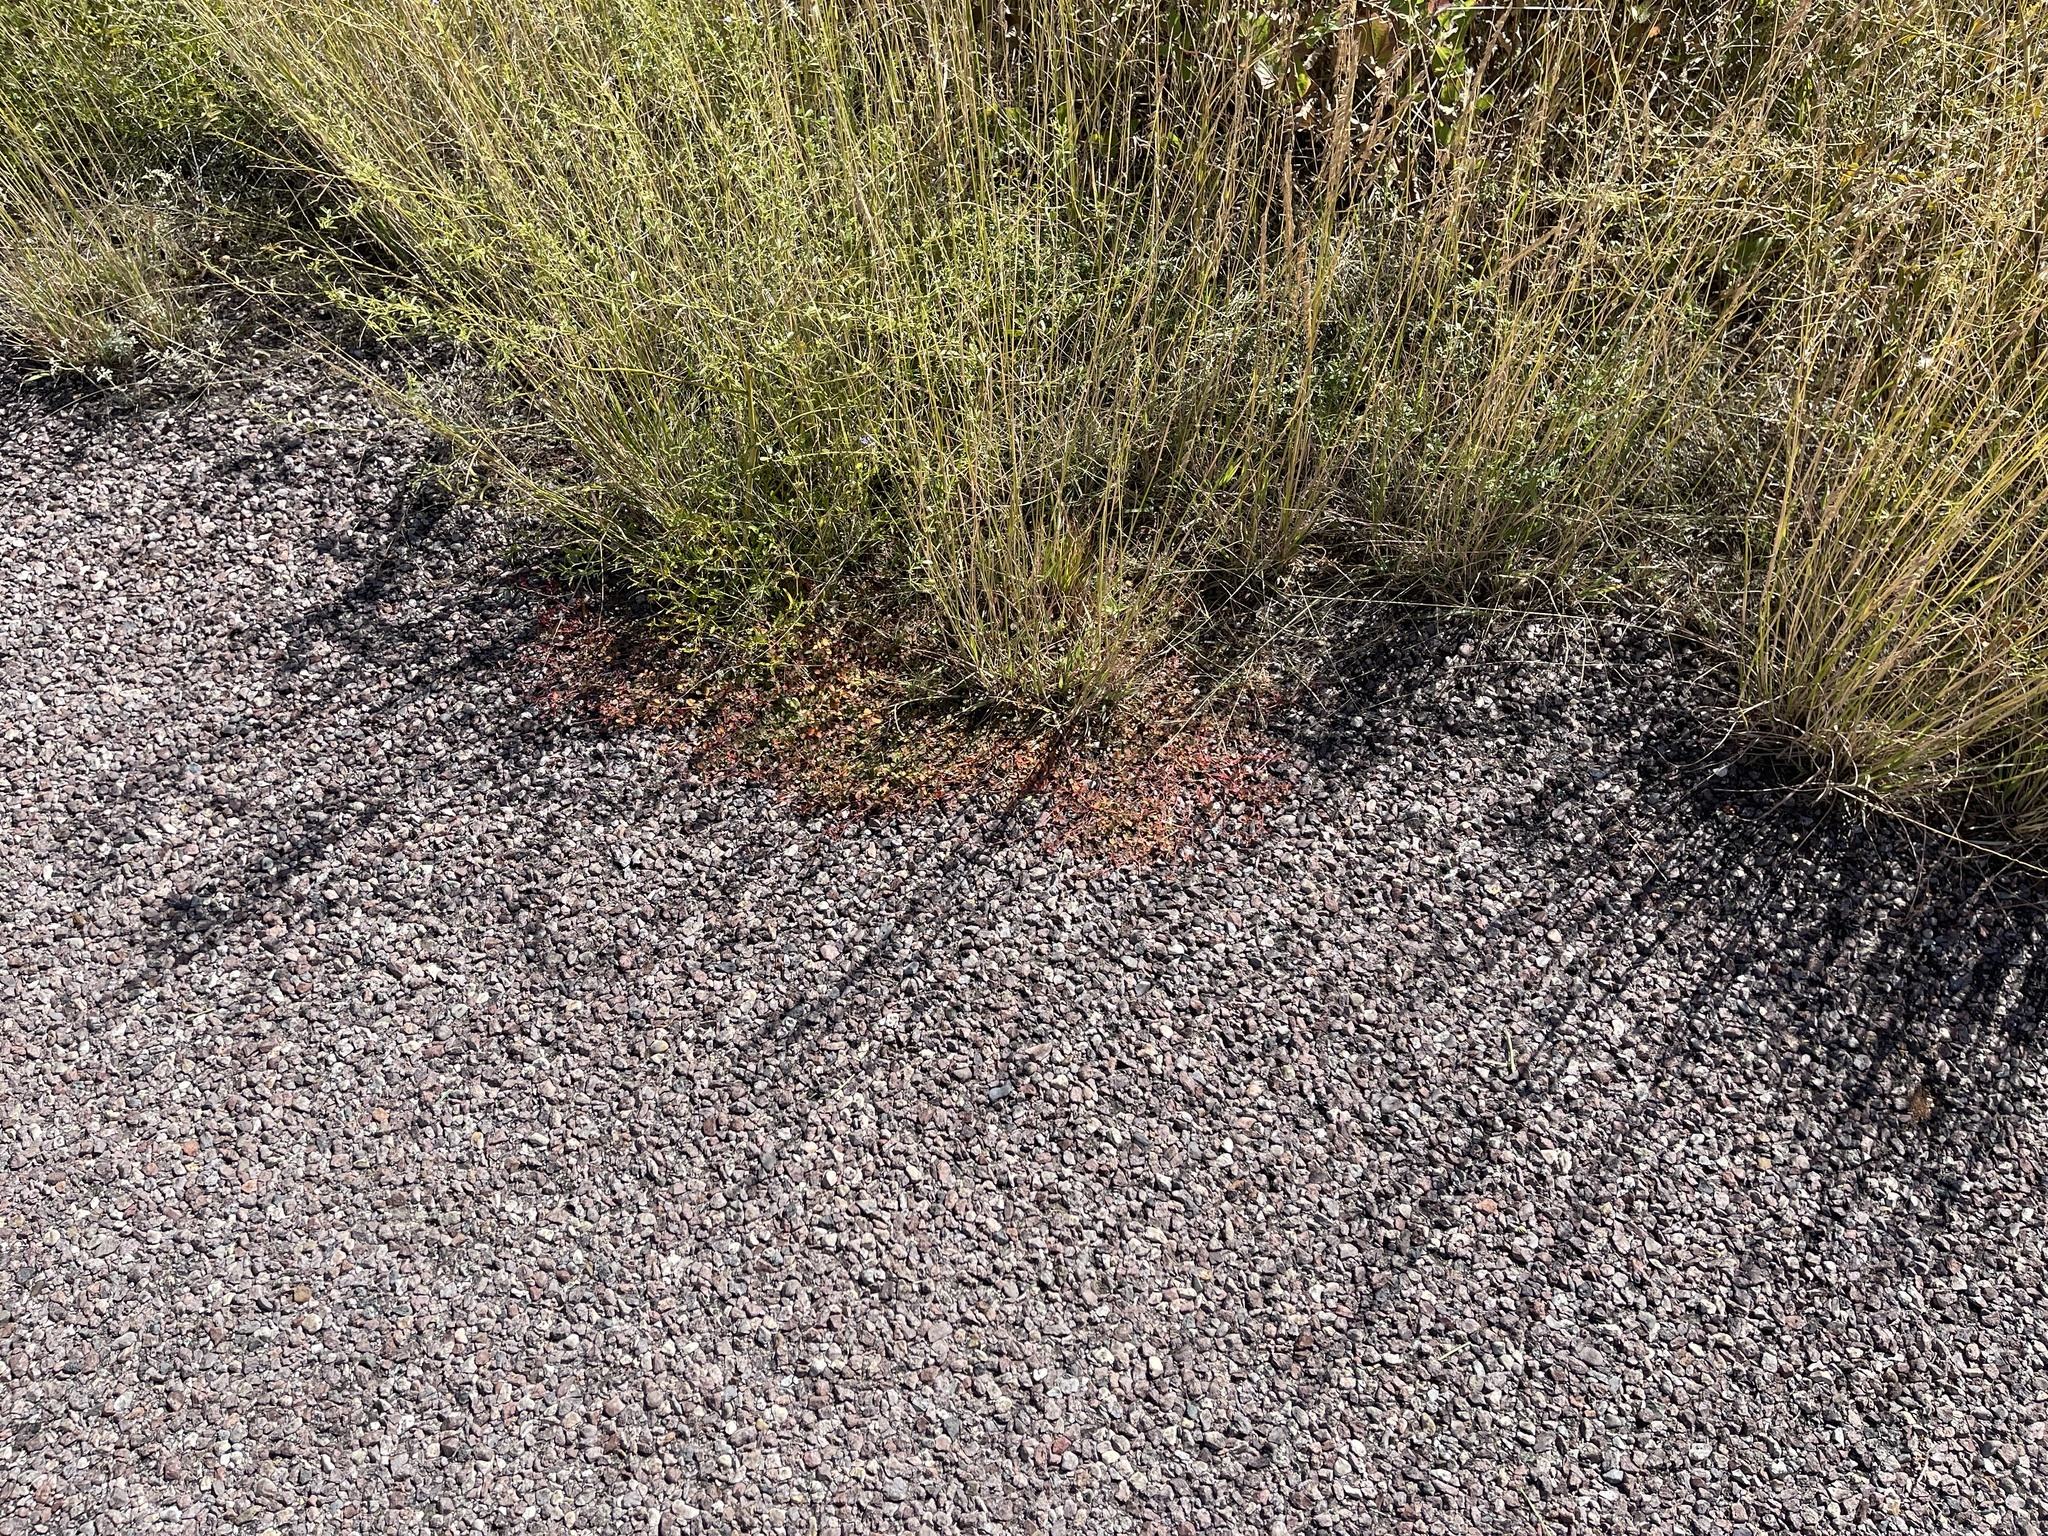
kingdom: Plantae
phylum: Tracheophyta
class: Magnoliopsida
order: Malpighiales
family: Euphorbiaceae
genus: Euphorbia
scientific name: Euphorbia albomarginata
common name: Whitemargin sandmat
